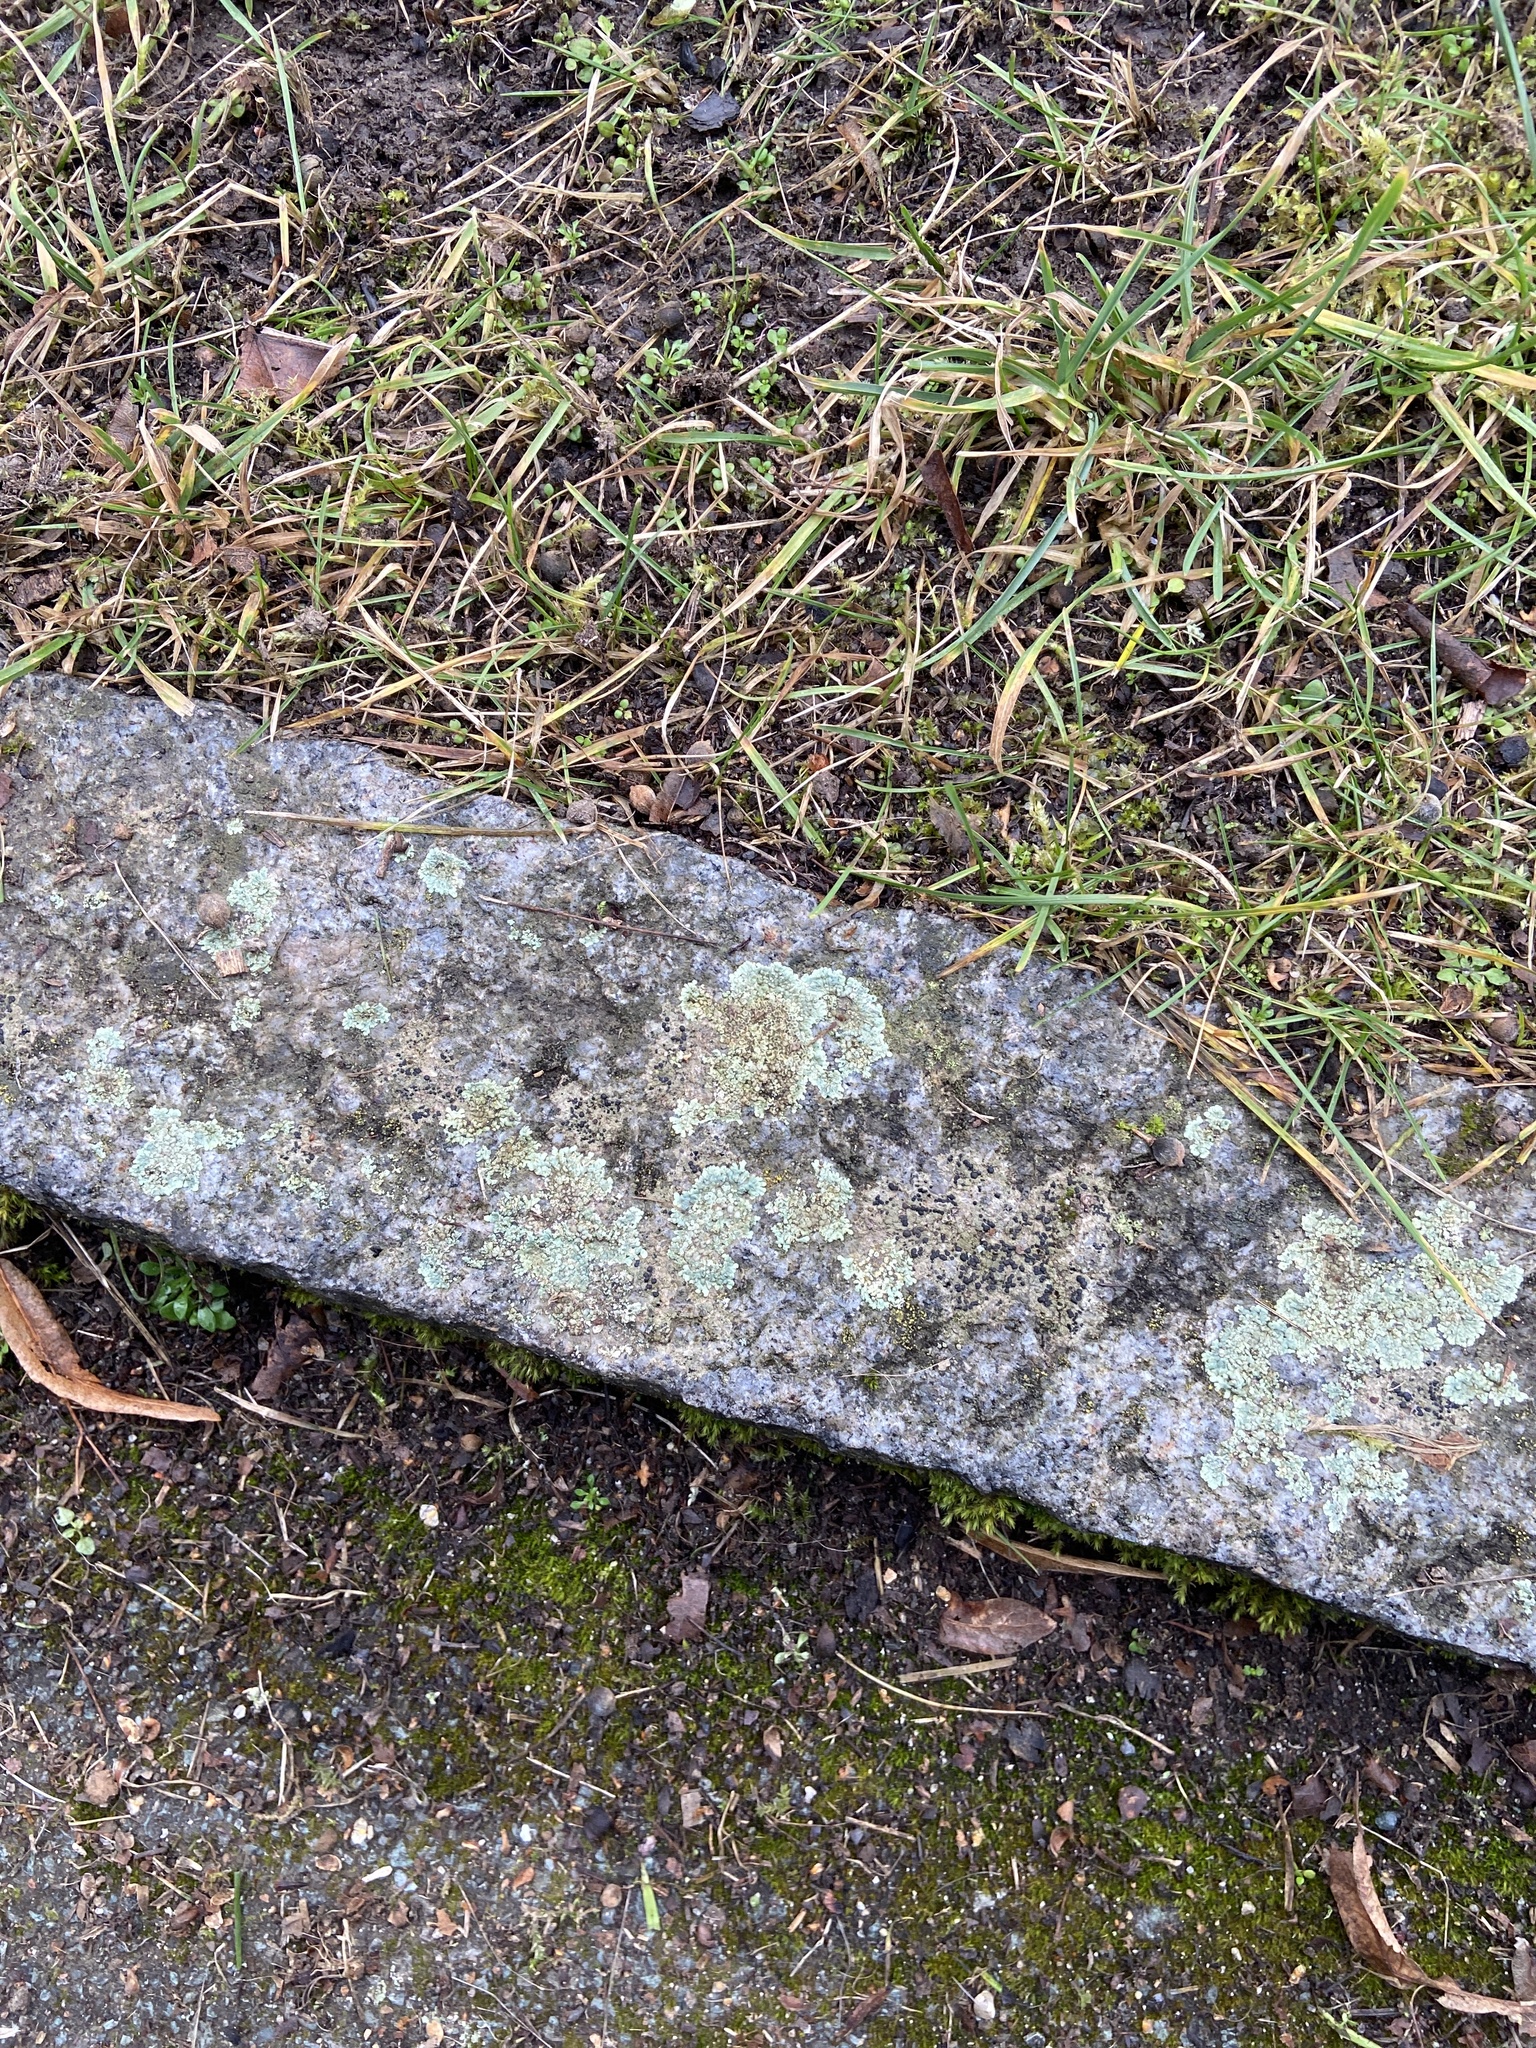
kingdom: Fungi
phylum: Ascomycota
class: Lecanoromycetes
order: Lecanorales
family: Lecanoraceae
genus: Protoparmeliopsis
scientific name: Protoparmeliopsis muralis
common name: Stonewall rim lichen
